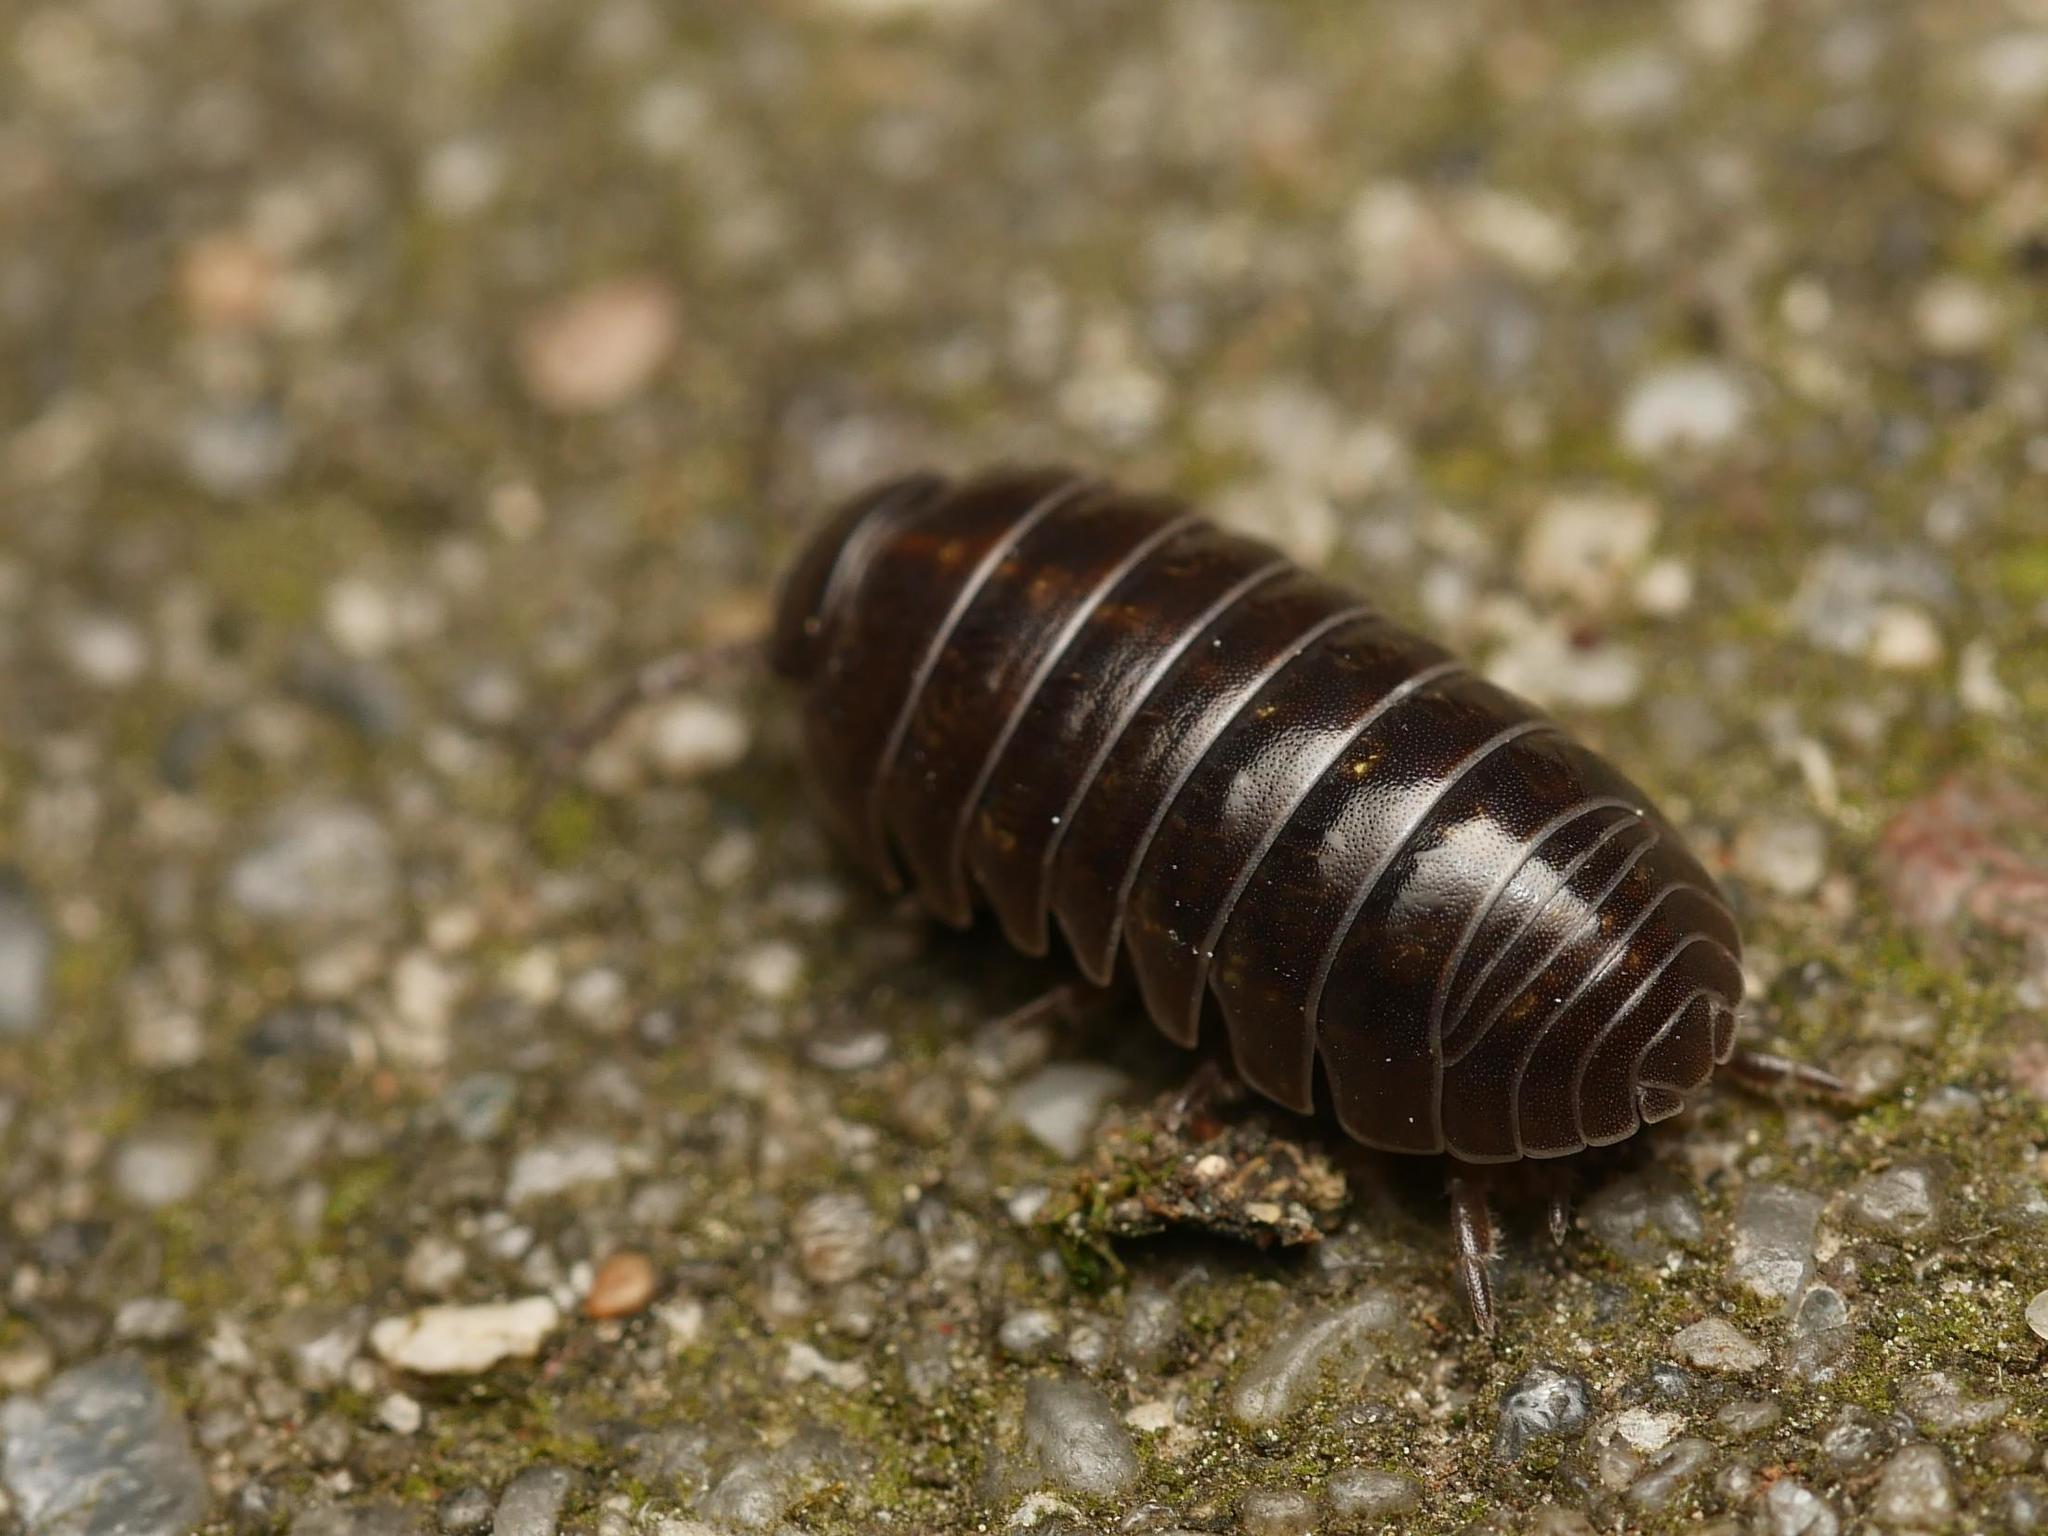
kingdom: Animalia
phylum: Arthropoda
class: Malacostraca
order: Isopoda
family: Armadillidiidae
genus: Armadillidium
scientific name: Armadillidium vulgare
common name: Common pill woodlouse
